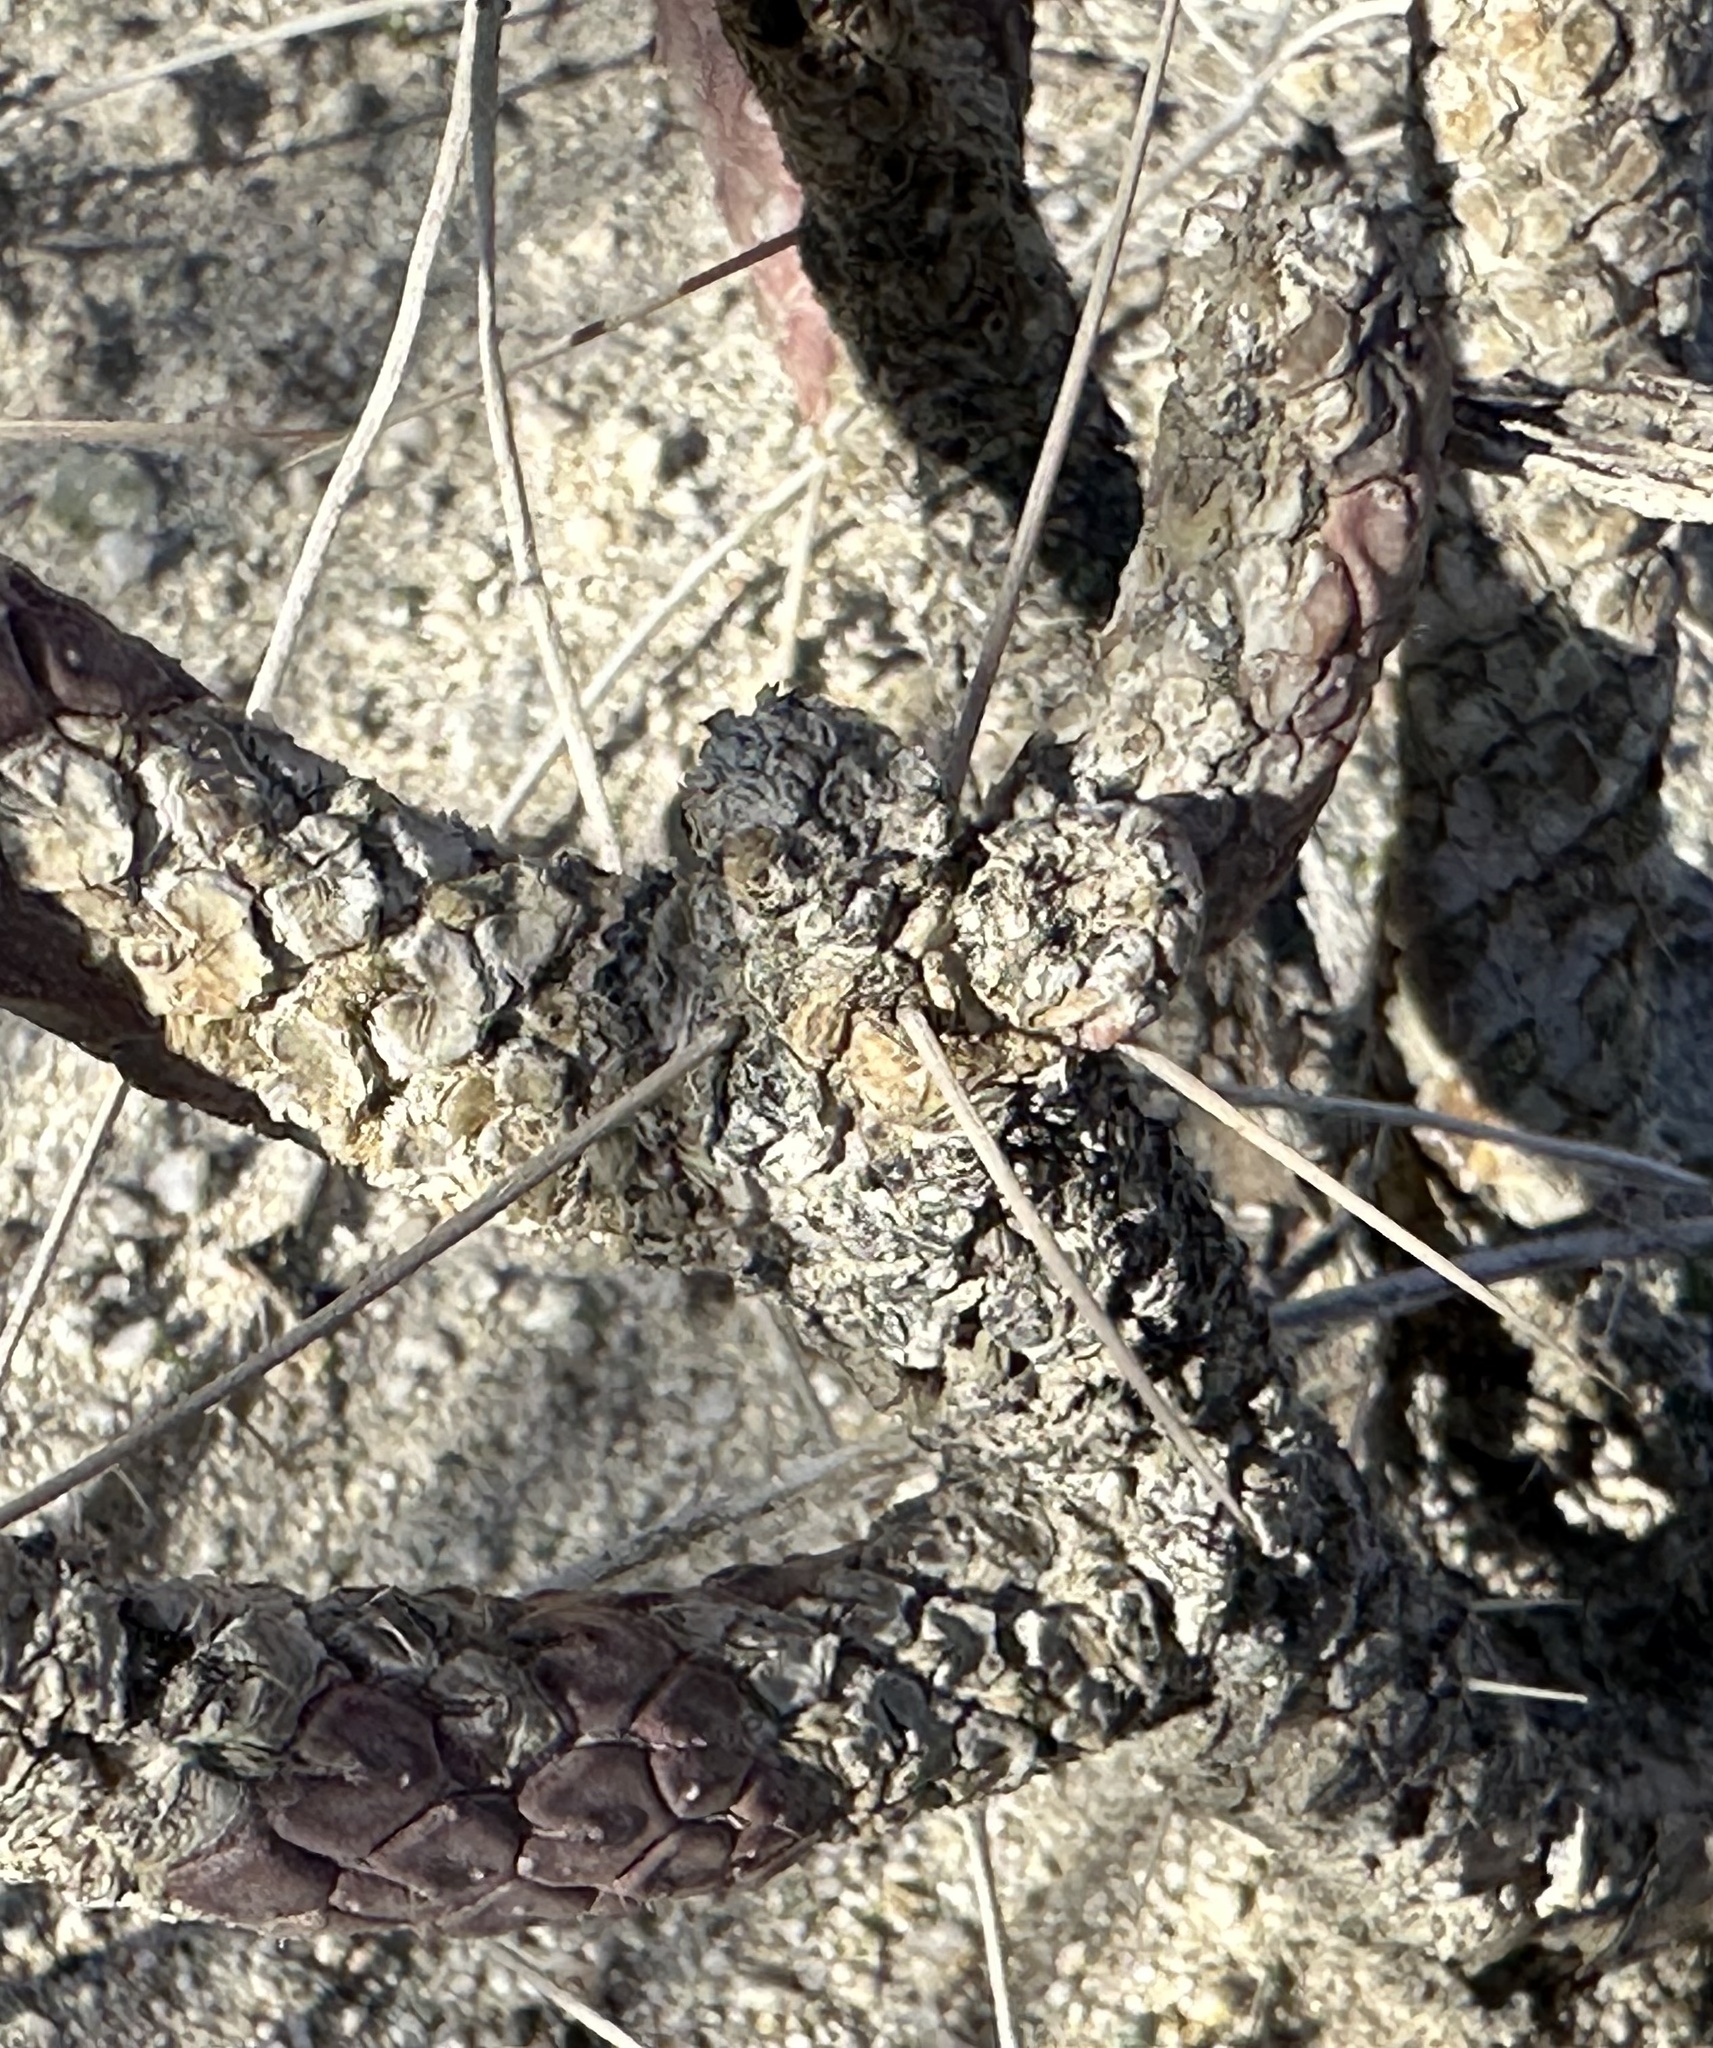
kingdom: Plantae
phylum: Tracheophyta
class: Magnoliopsida
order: Caryophyllales
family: Cactaceae
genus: Cylindropuntia
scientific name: Cylindropuntia ramosissima
